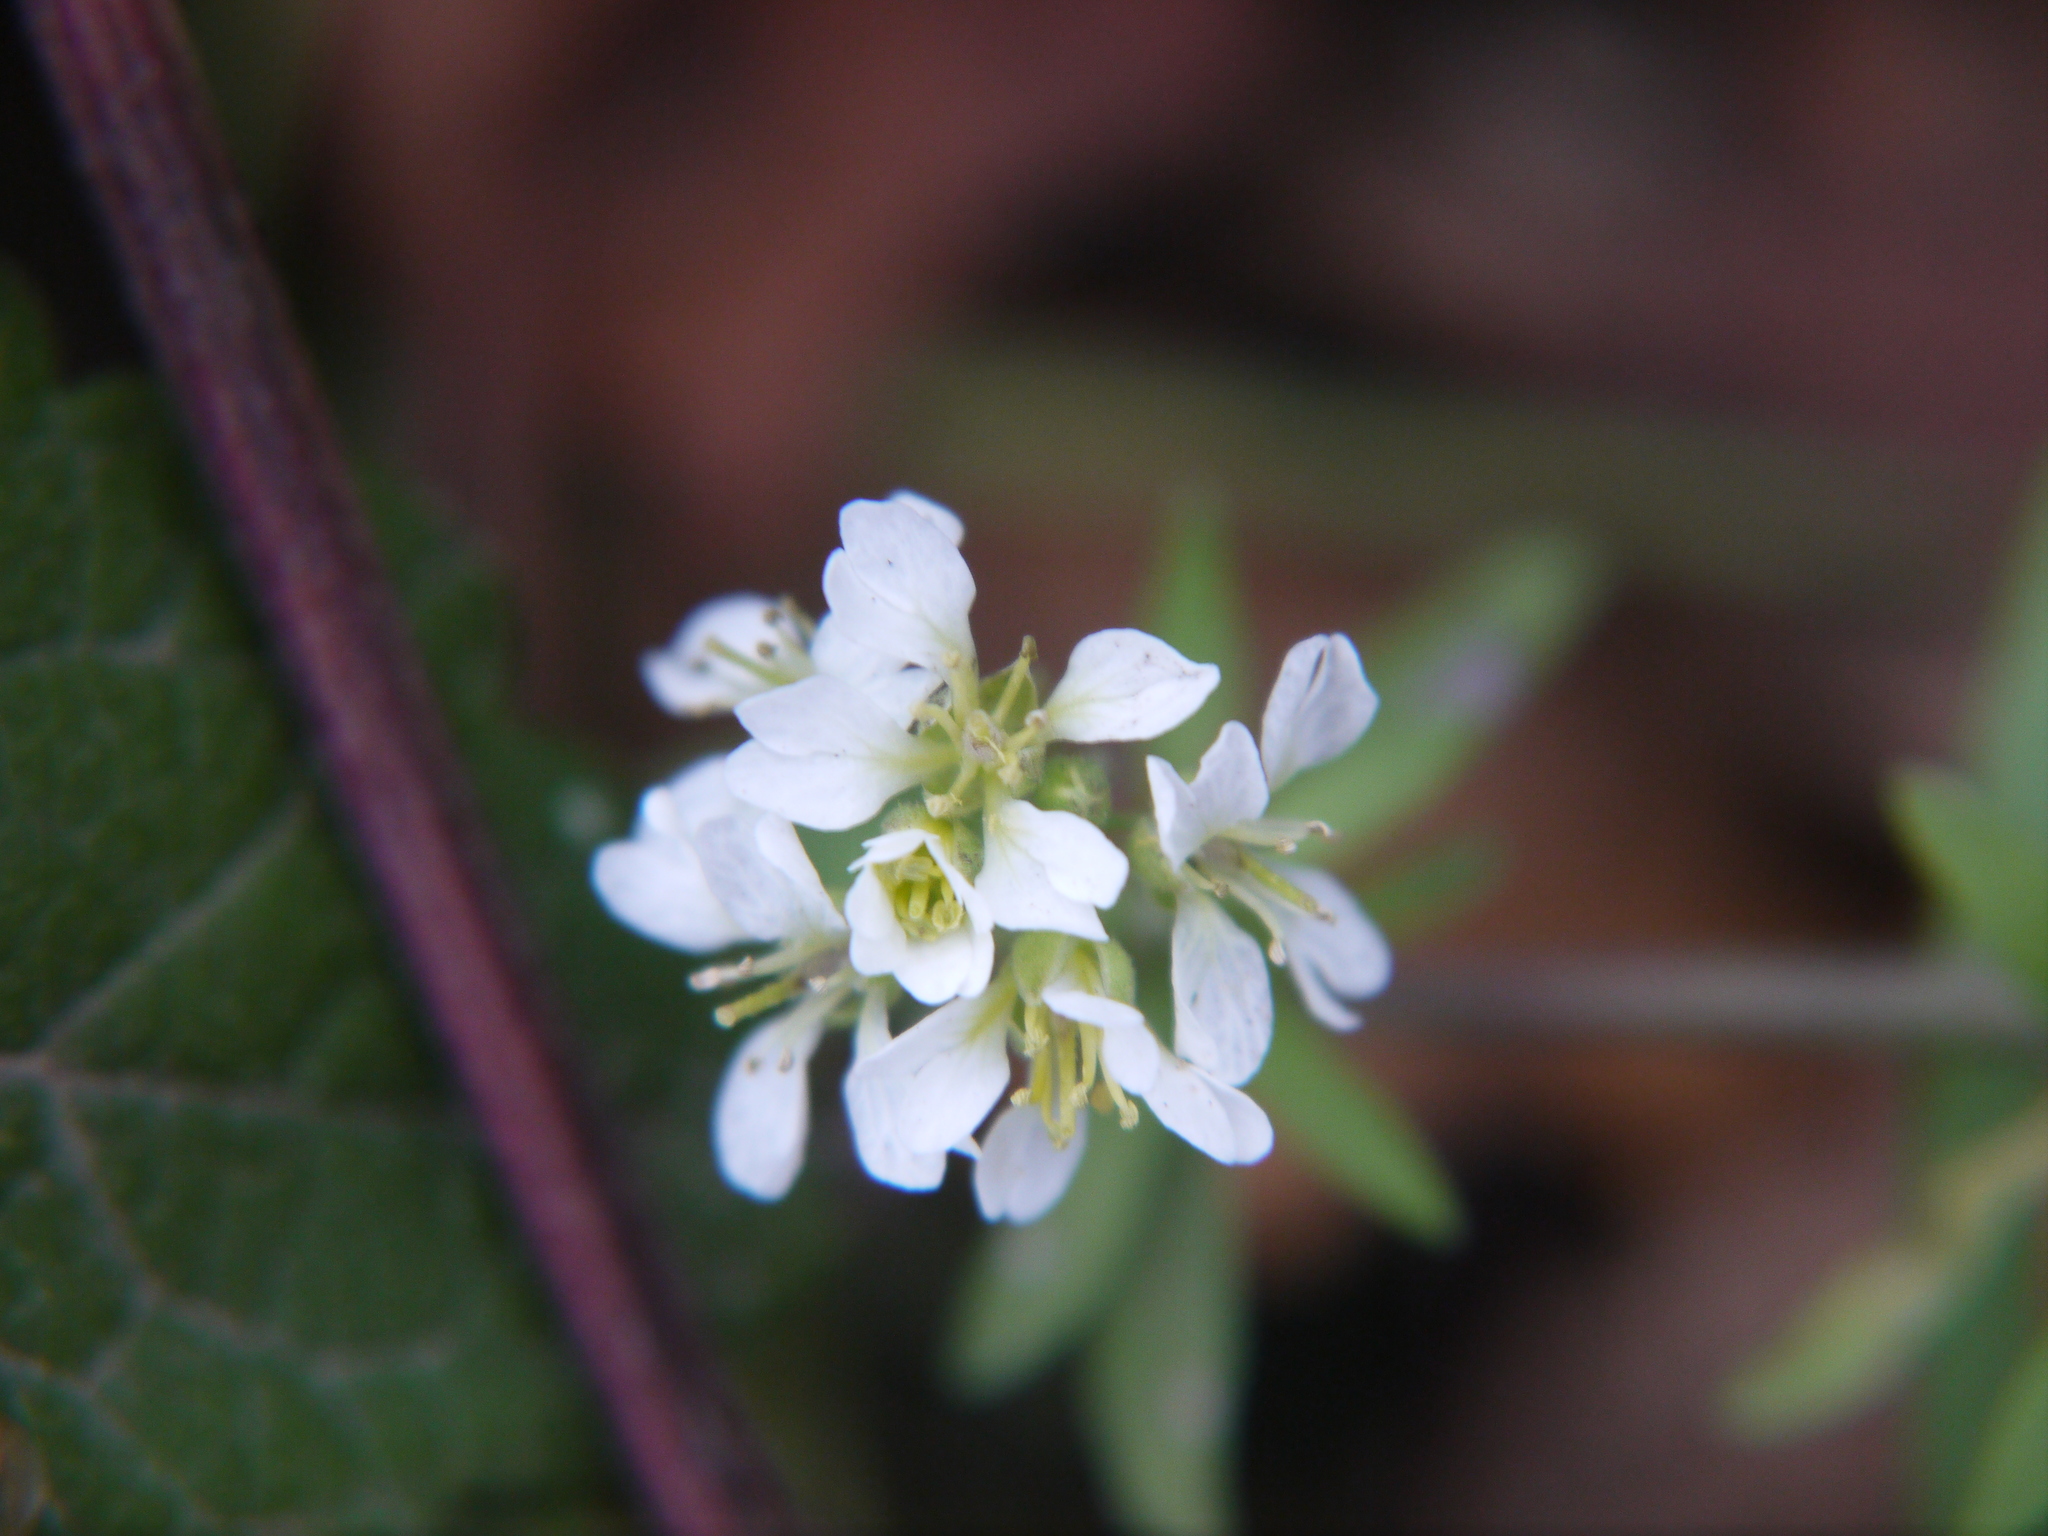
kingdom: Plantae
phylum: Tracheophyta
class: Magnoliopsida
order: Brassicales
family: Brassicaceae
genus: Berteroa
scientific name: Berteroa incana
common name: Hoary alison
